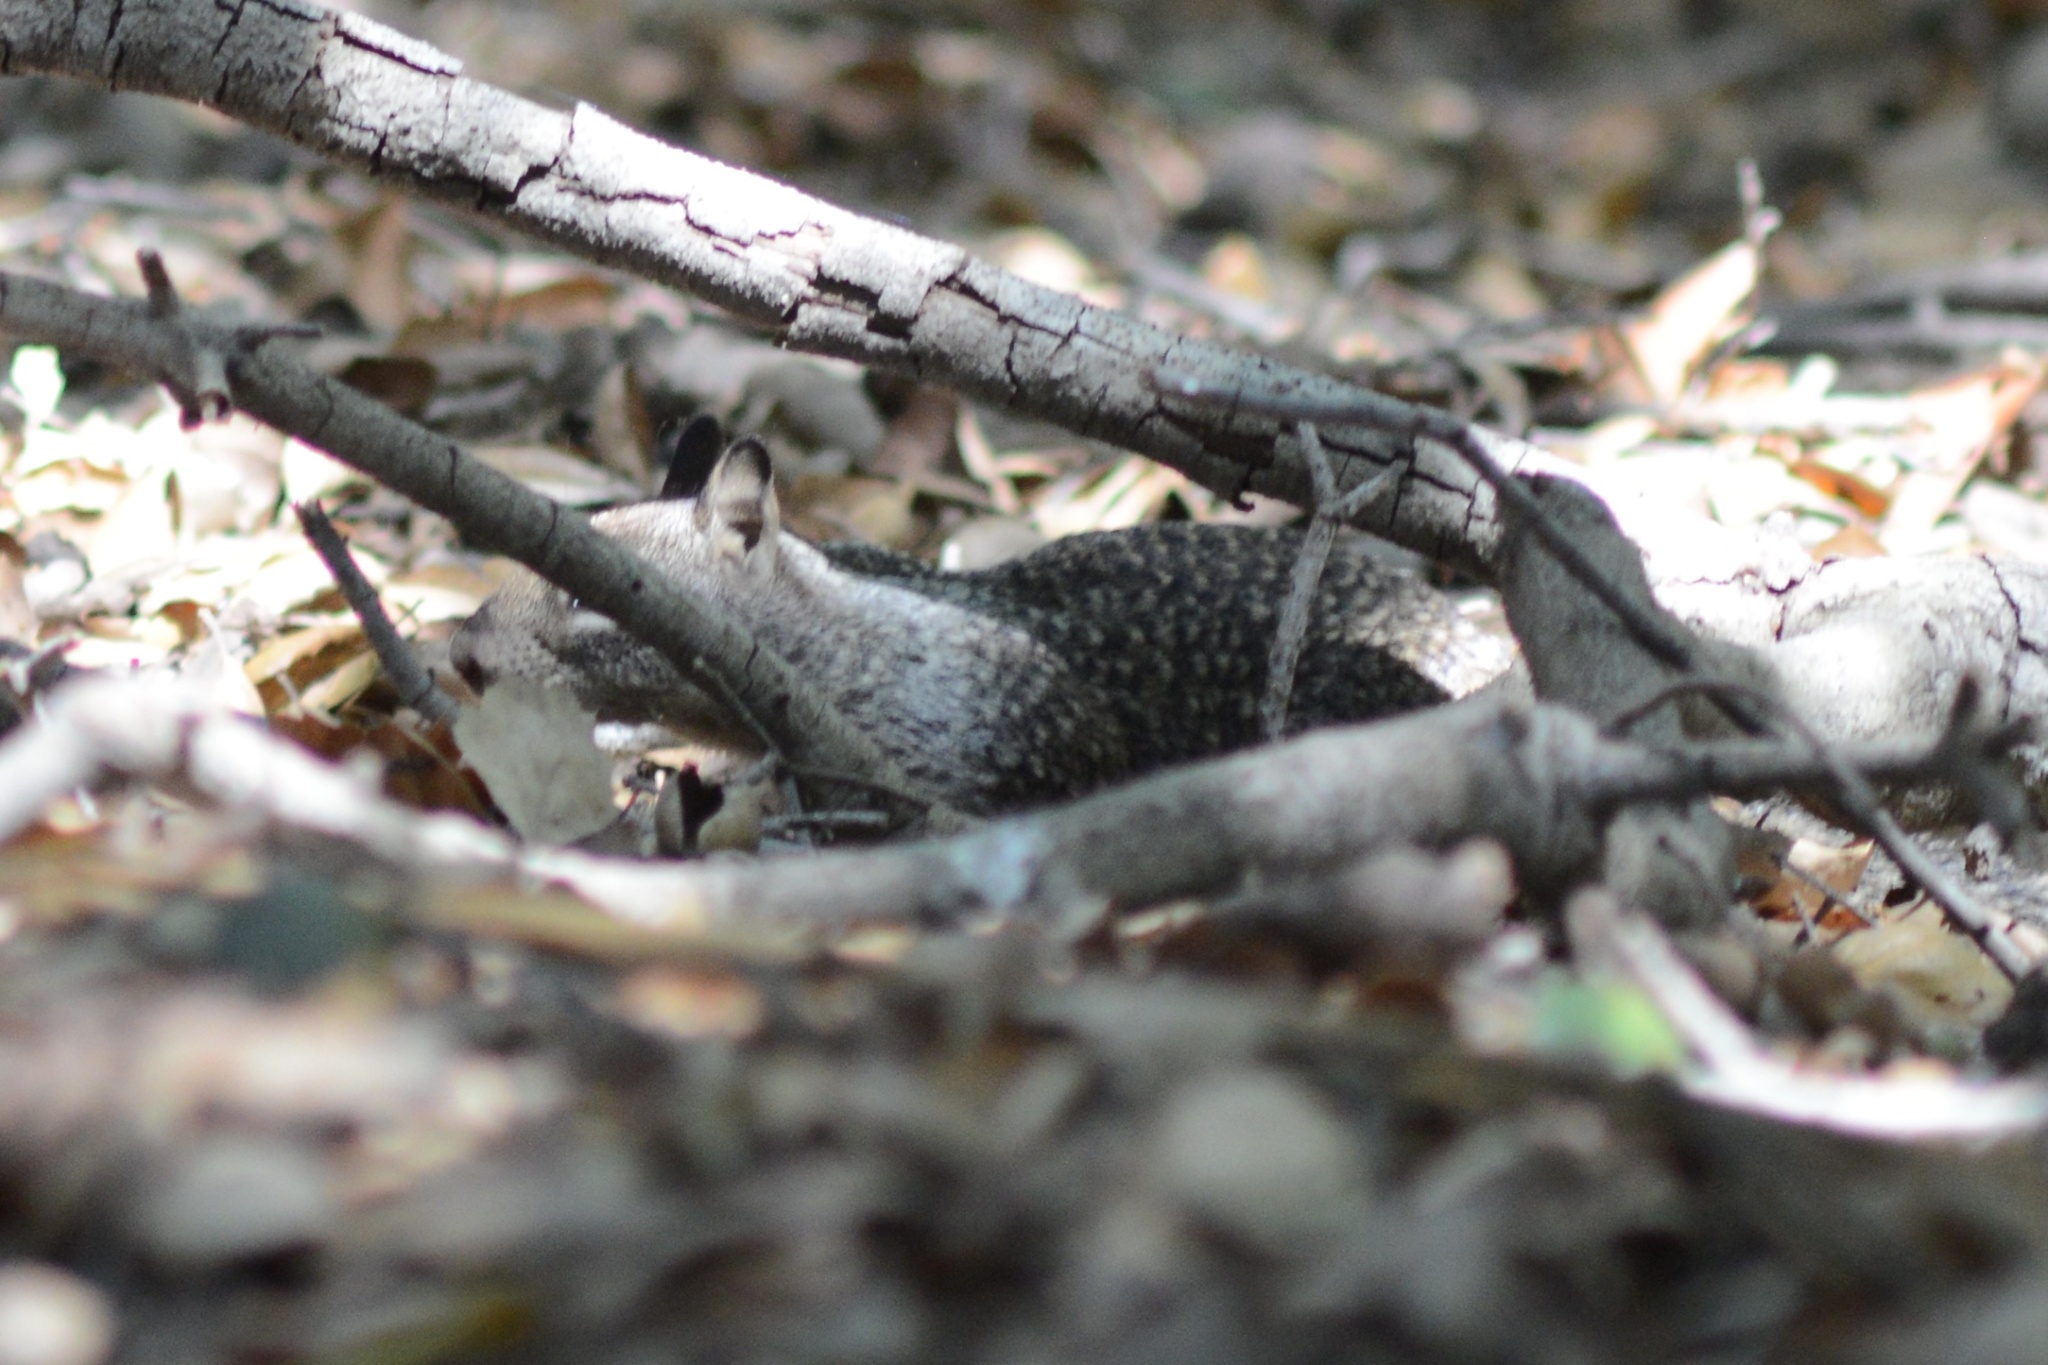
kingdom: Animalia
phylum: Chordata
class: Mammalia
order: Rodentia
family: Sciuridae
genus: Otospermophilus
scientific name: Otospermophilus beecheyi
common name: California ground squirrel
